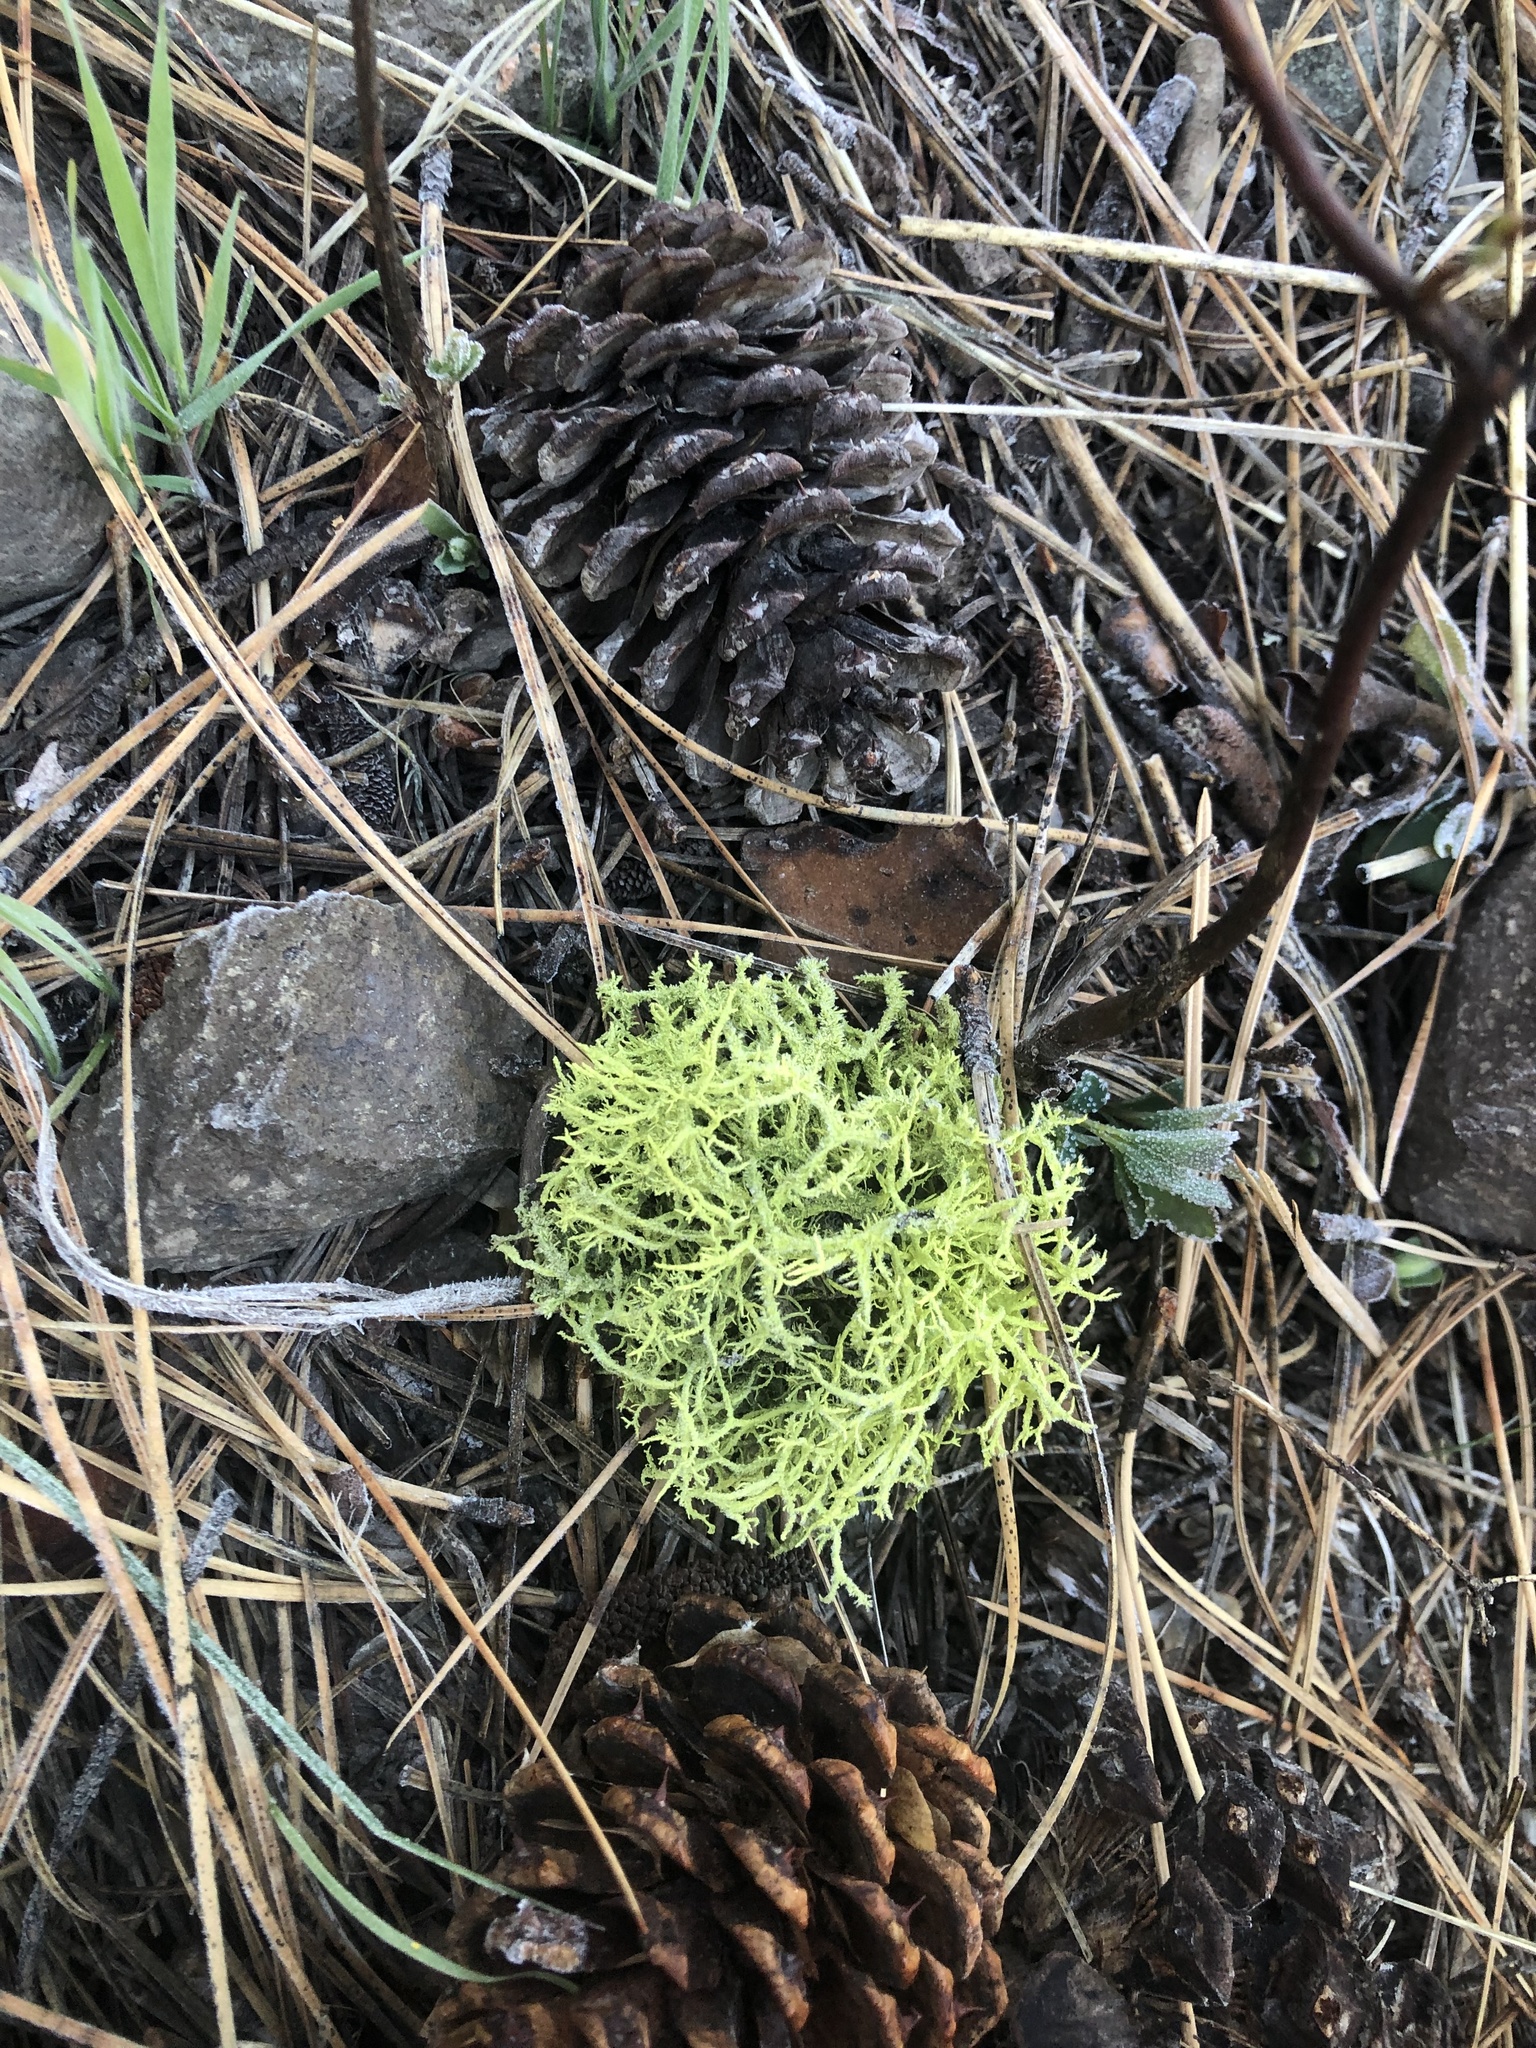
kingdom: Fungi
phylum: Ascomycota
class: Lecanoromycetes
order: Lecanorales
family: Parmeliaceae
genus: Letharia
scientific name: Letharia vulpina
